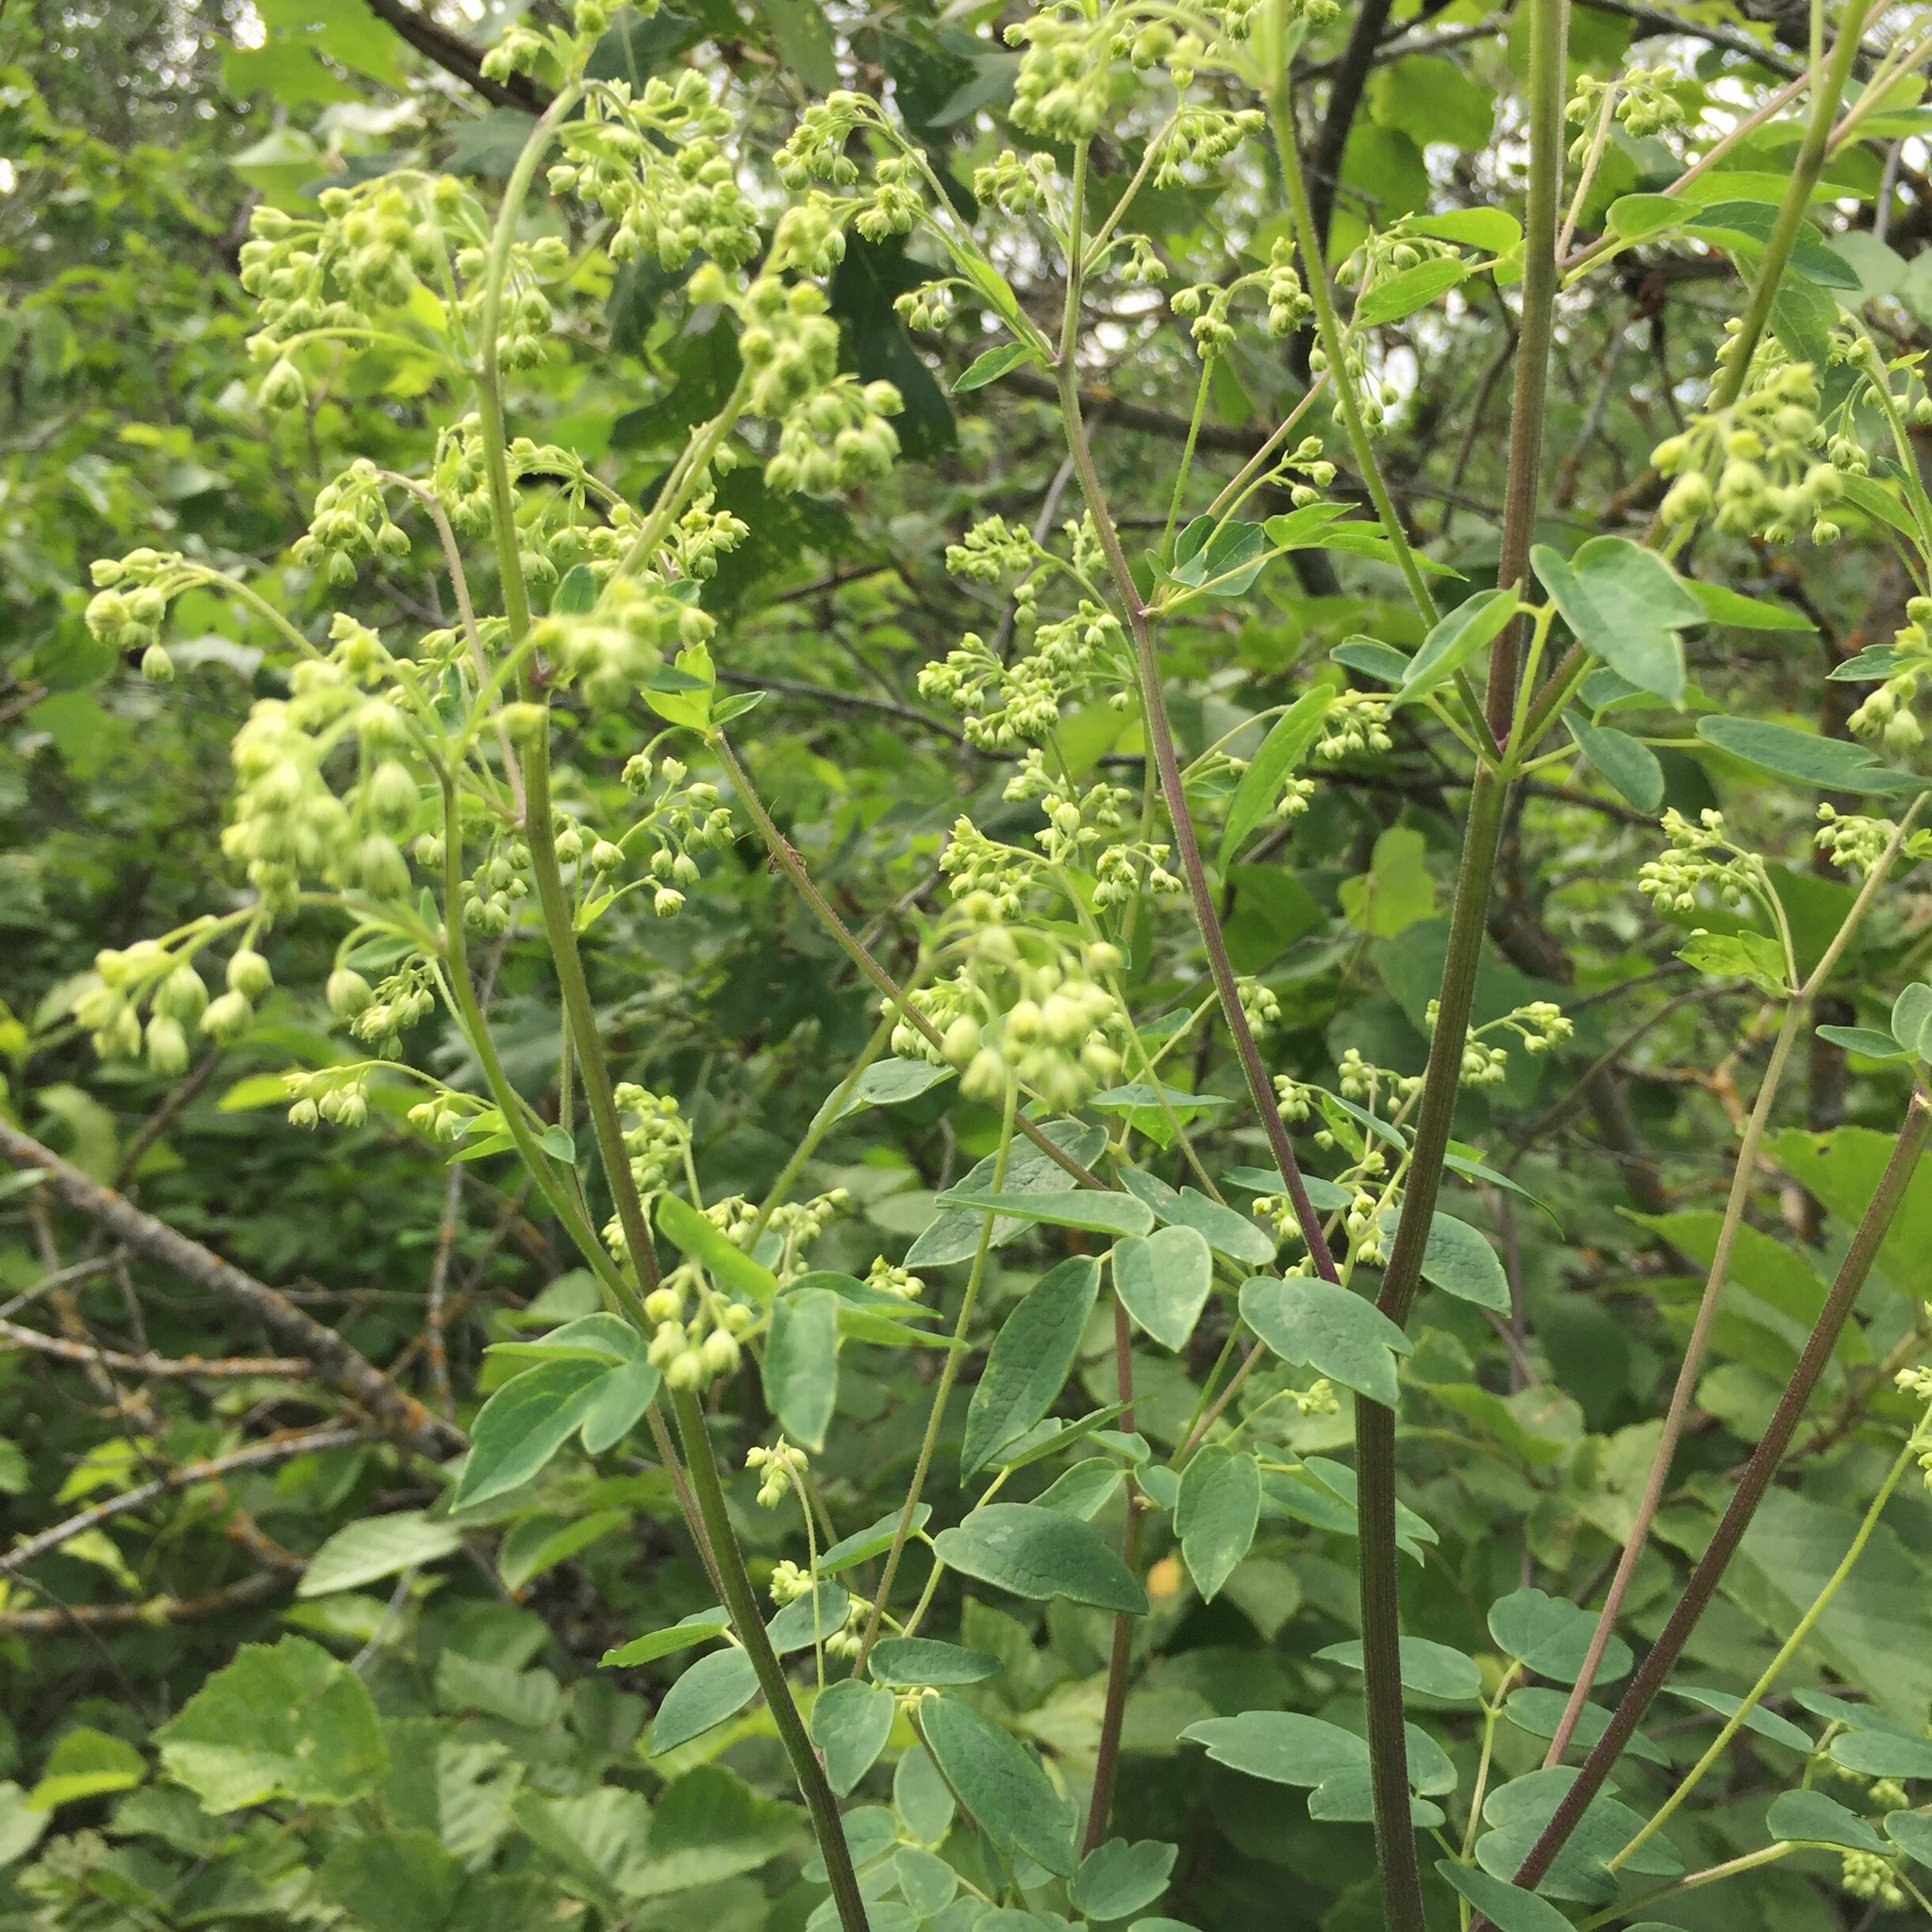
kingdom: Plantae
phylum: Tracheophyta
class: Magnoliopsida
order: Ranunculales
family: Ranunculaceae
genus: Thalictrum
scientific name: Thalictrum dasycarpum
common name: Purple meadow-rue
